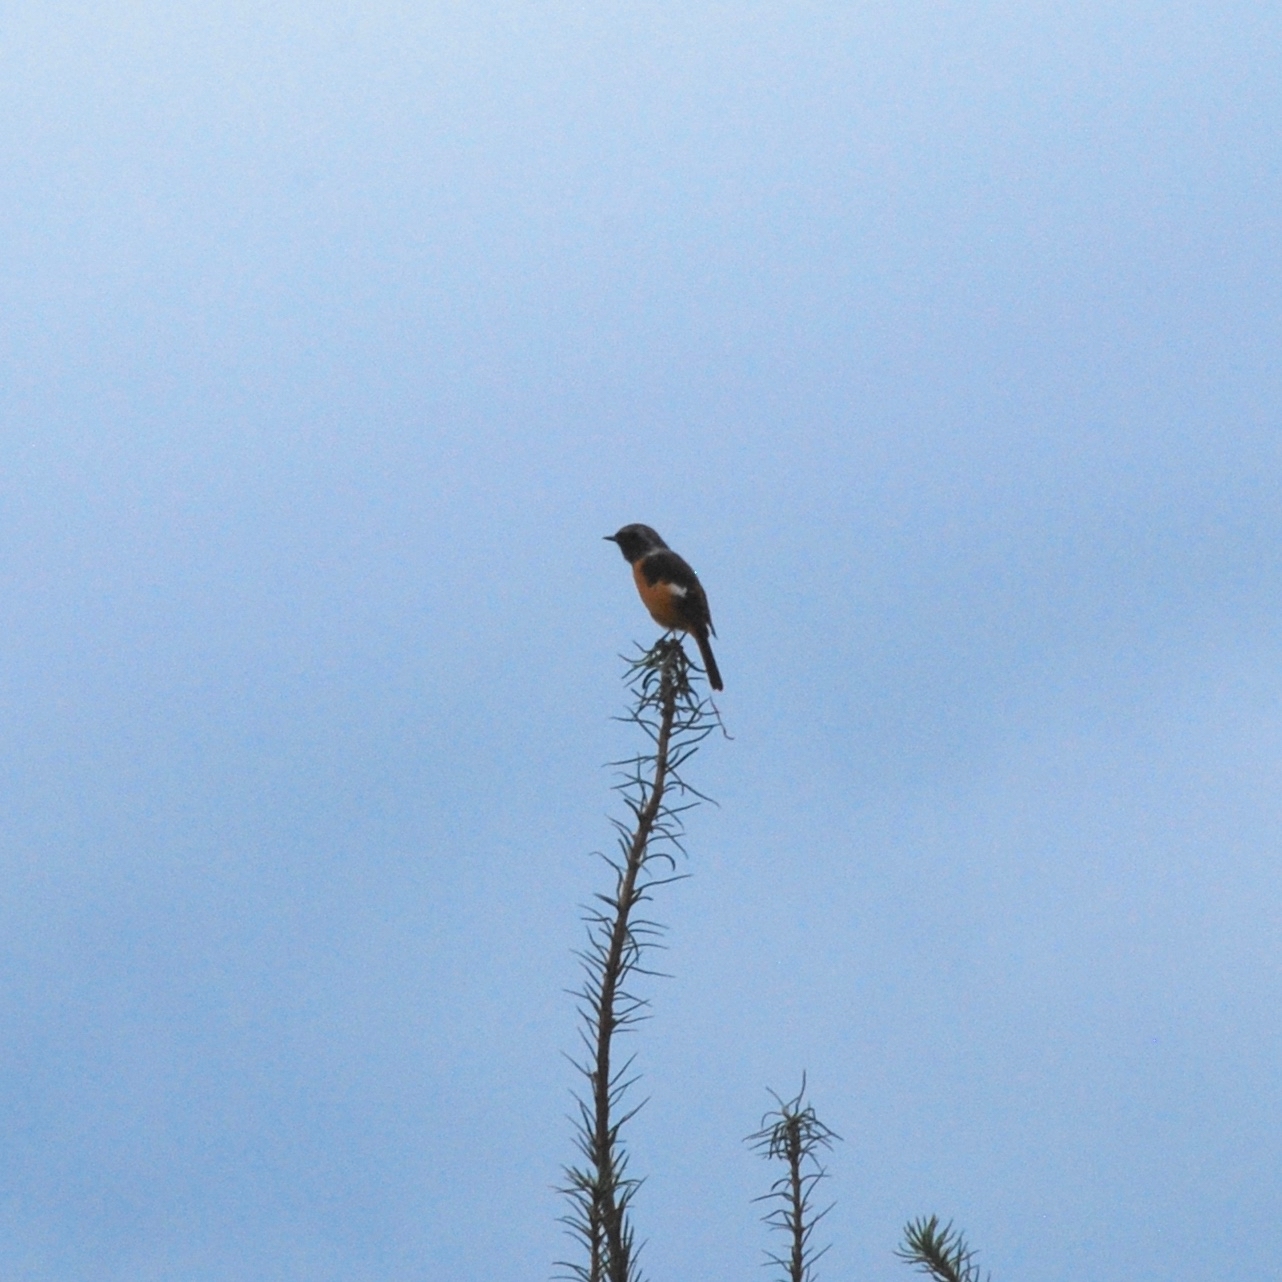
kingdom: Animalia
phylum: Chordata
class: Aves
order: Passeriformes
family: Muscicapidae
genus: Phoenicurus
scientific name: Phoenicurus auroreus
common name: Daurian redstart
